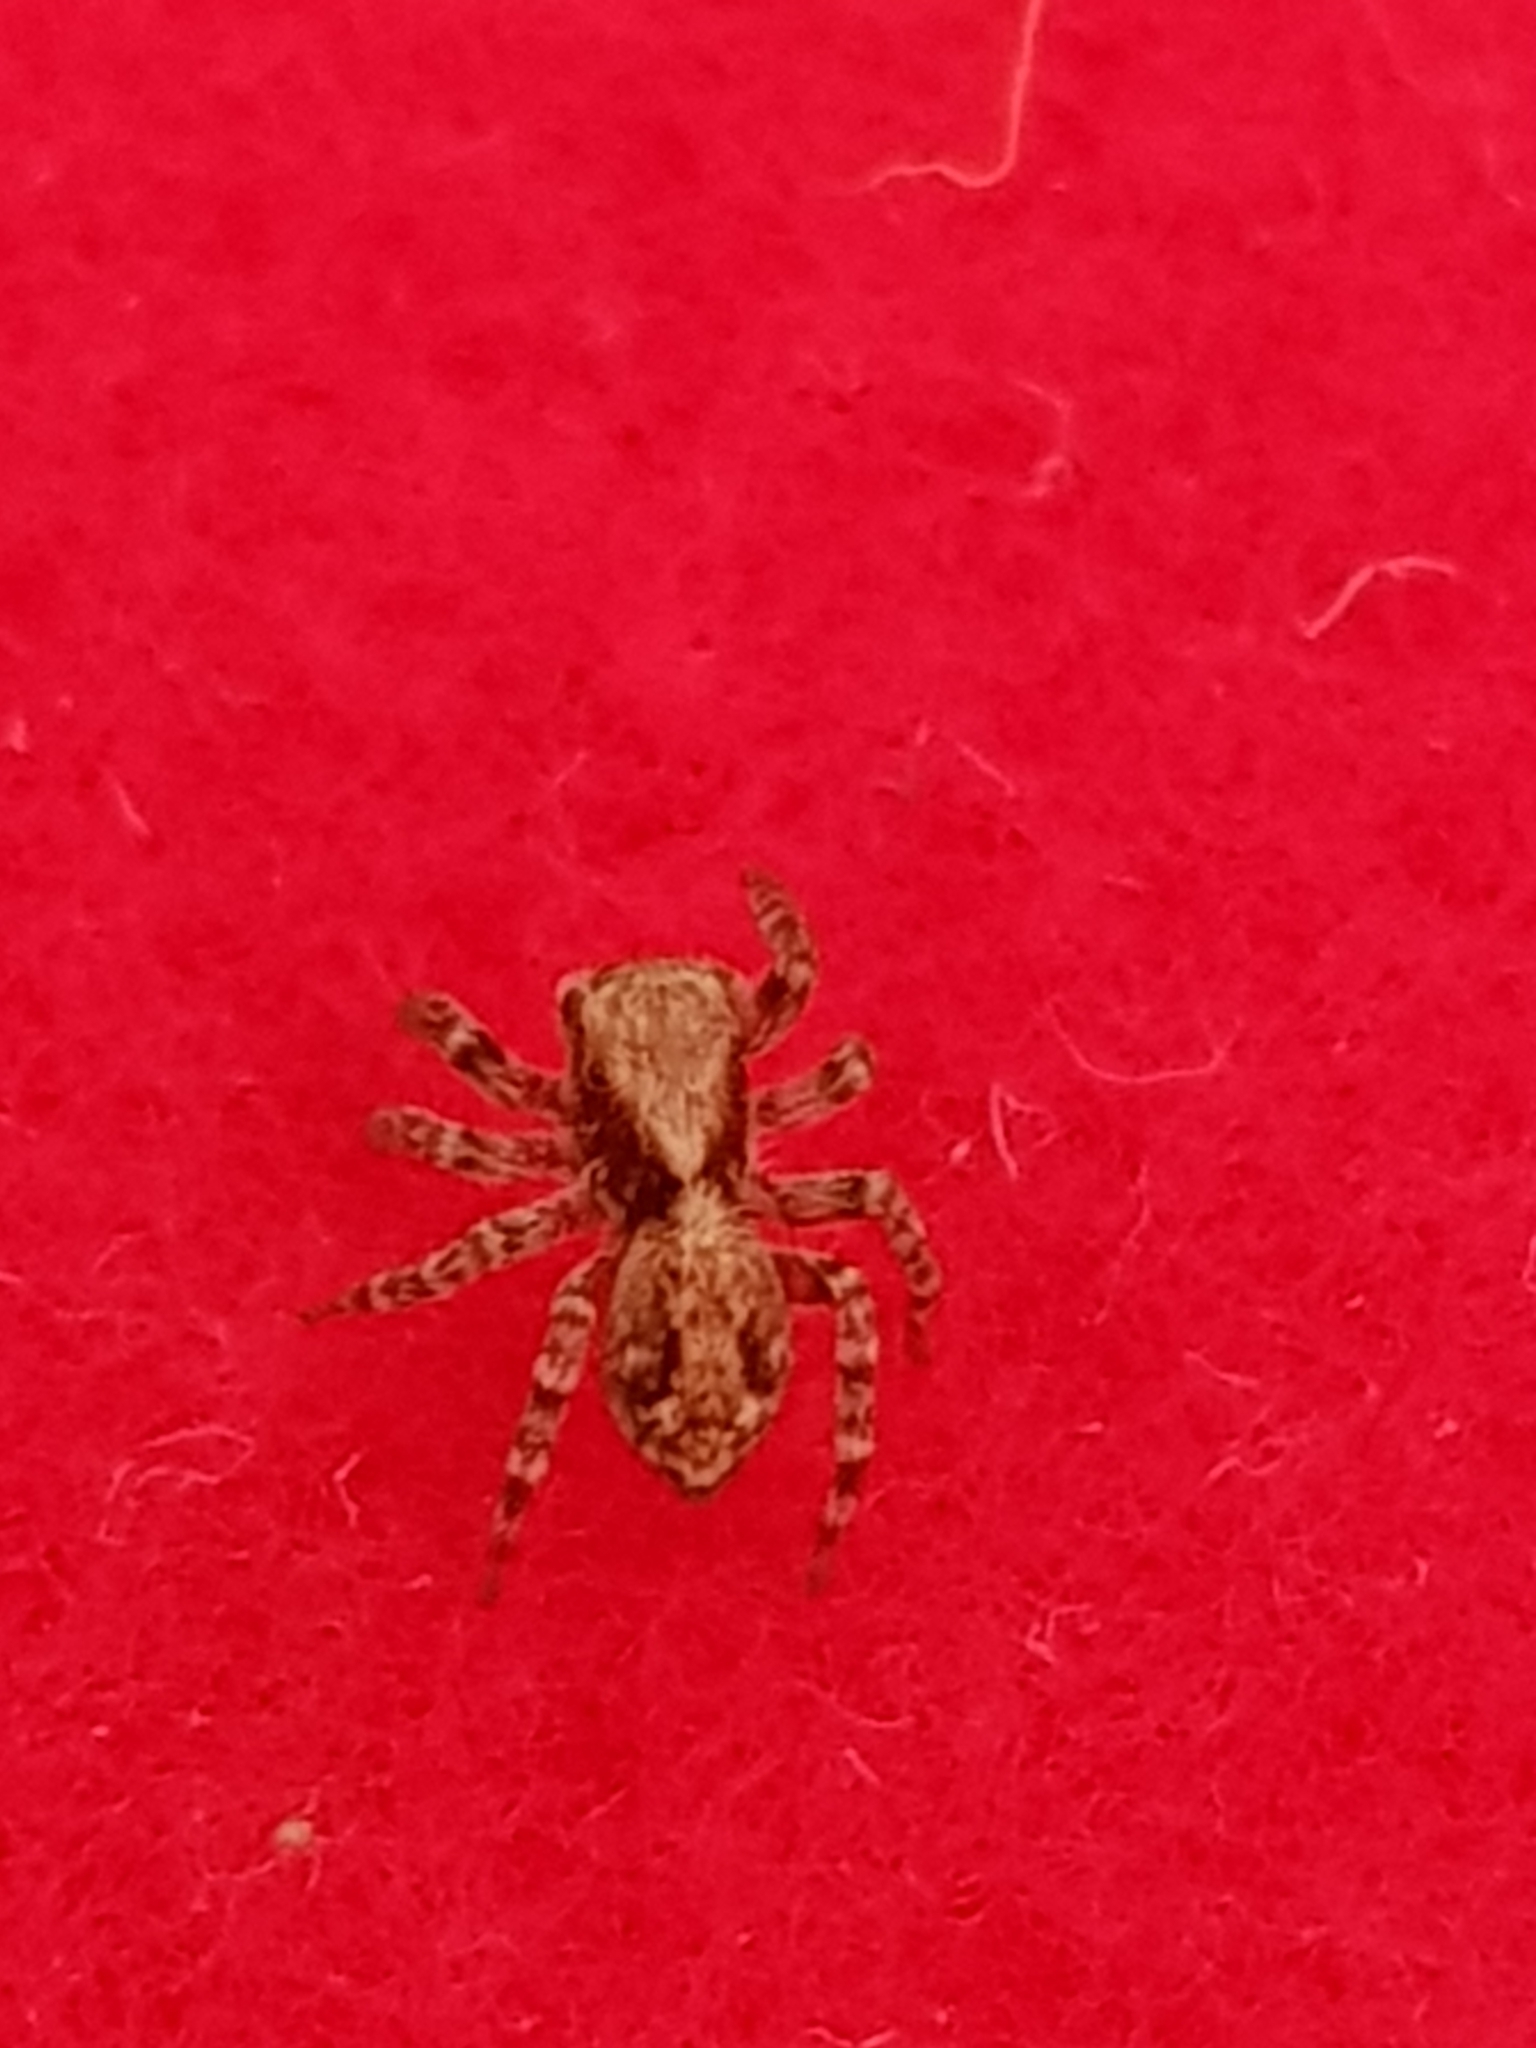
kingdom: Animalia
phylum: Arthropoda
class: Arachnida
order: Araneae
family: Salticidae
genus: Pseudeuophrys
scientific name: Pseudeuophrys lanigera
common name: Jumping spider
